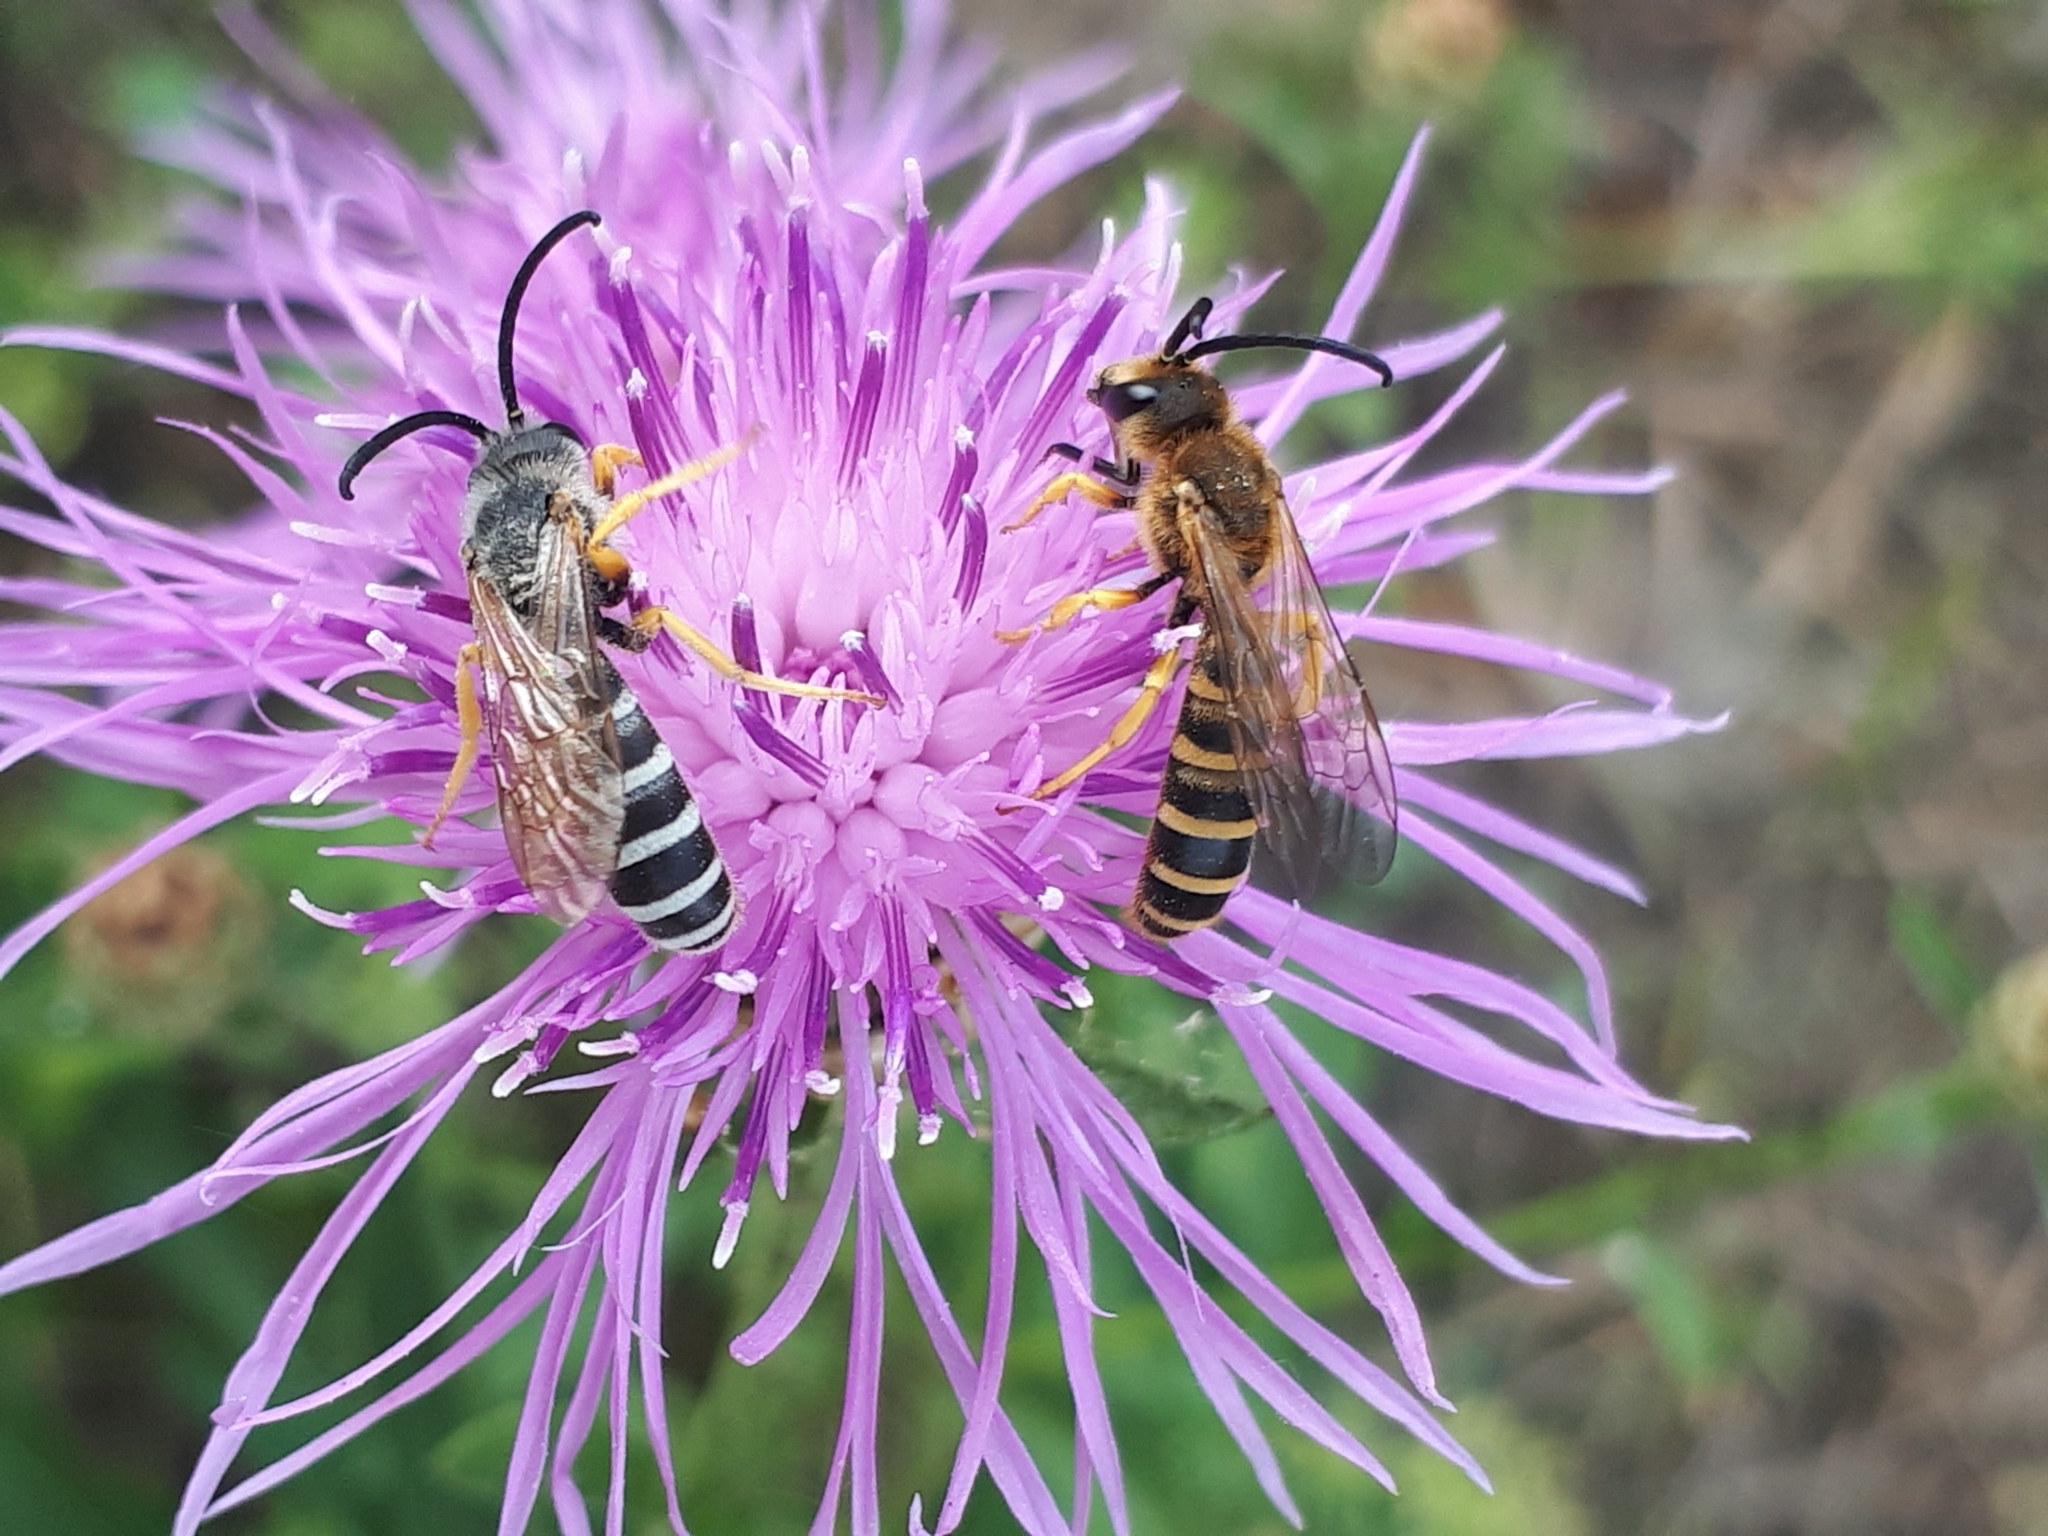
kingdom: Animalia
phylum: Arthropoda
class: Insecta
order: Hymenoptera
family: Halictidae
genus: Halictus
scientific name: Halictus scabiosae
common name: Great banded furrow bee
